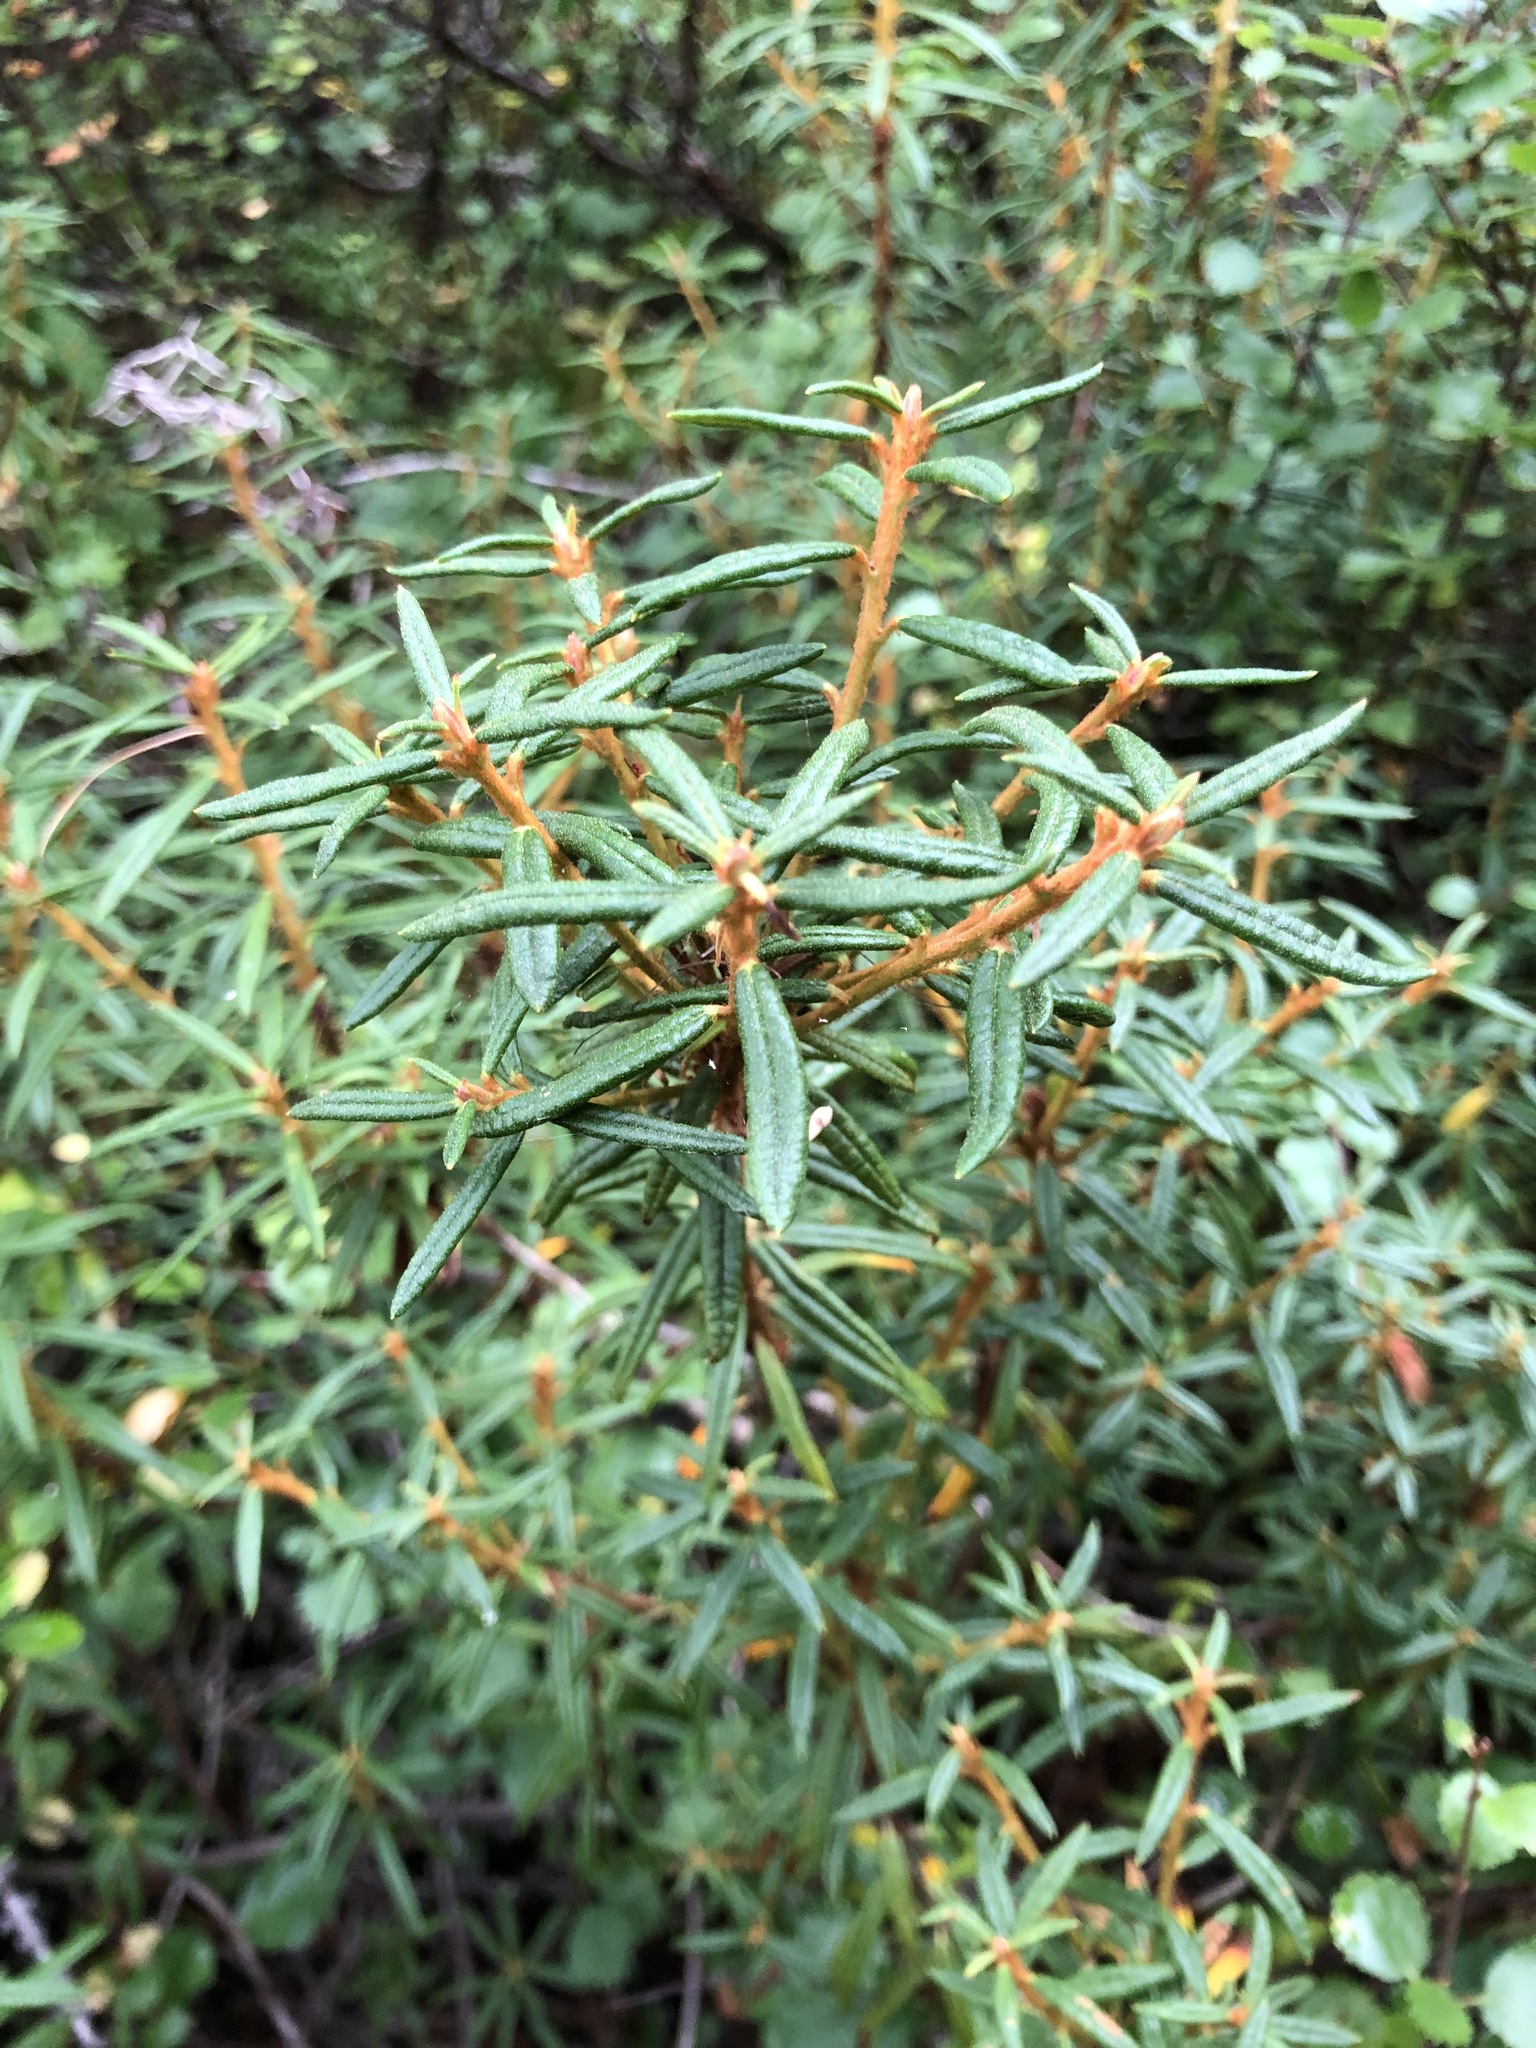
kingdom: Plantae
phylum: Tracheophyta
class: Magnoliopsida
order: Ericales
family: Ericaceae
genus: Rhododendron
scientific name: Rhododendron tomentosum
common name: Marsh labrador tea
